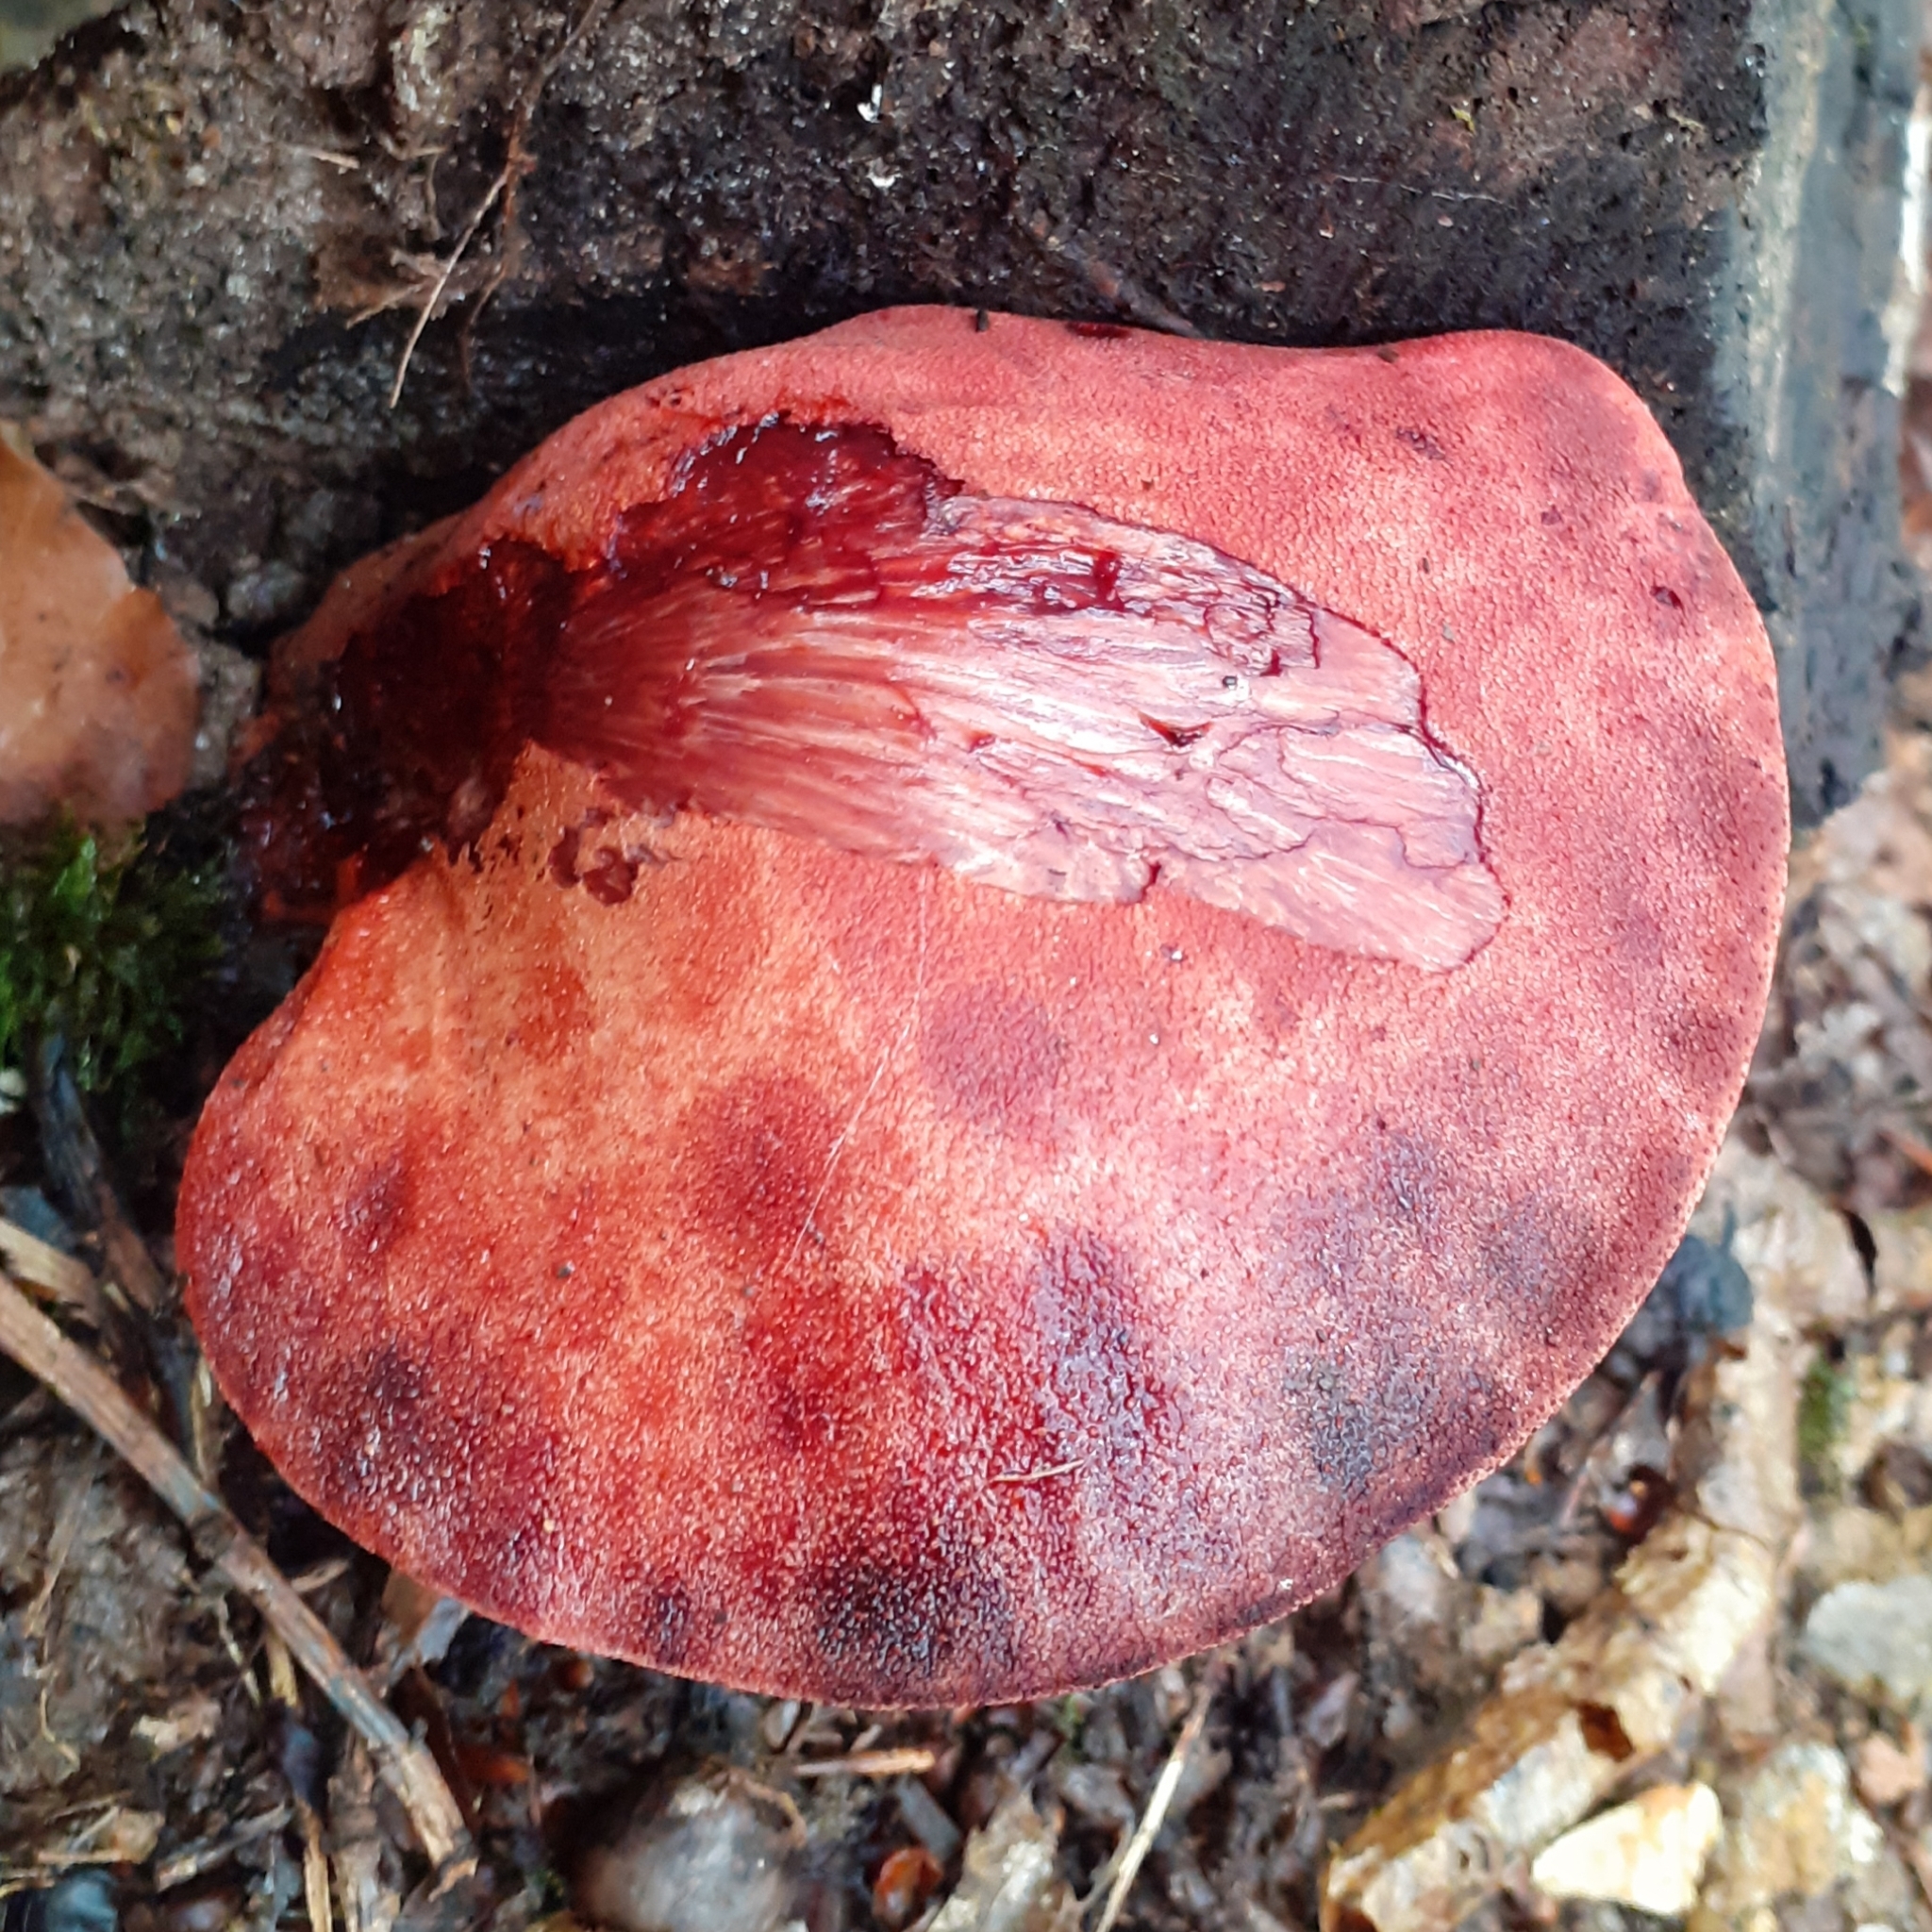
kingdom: Fungi
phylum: Basidiomycota
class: Agaricomycetes
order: Agaricales
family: Fistulinaceae
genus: Fistulina
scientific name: Fistulina hepatica
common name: Beef-steak fungus
